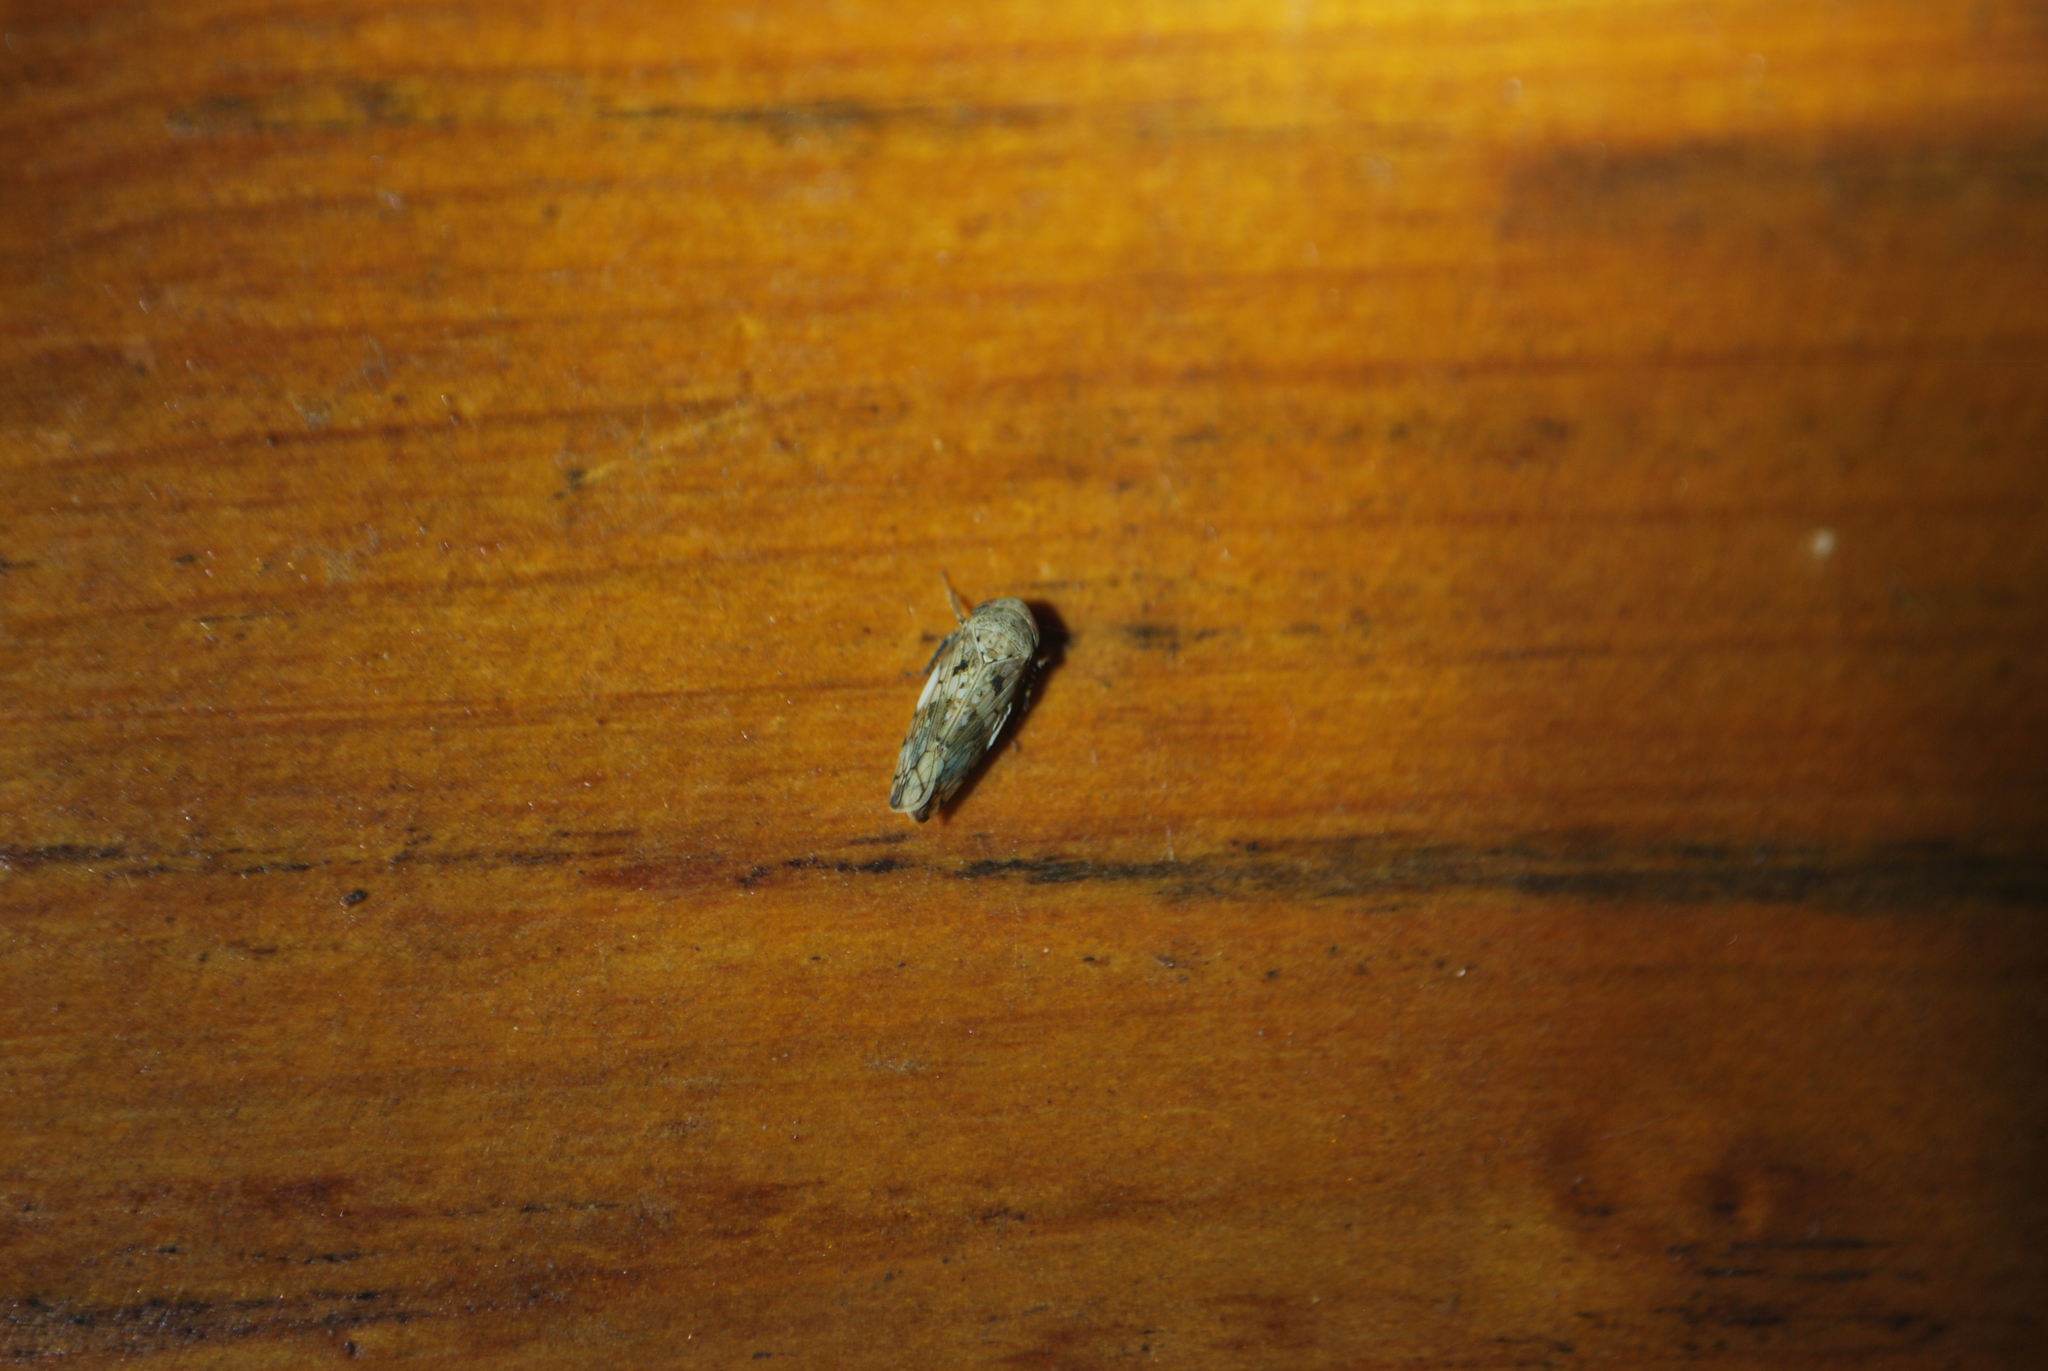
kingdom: Animalia
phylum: Arthropoda
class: Insecta
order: Hemiptera
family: Cicadellidae
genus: Menosoma
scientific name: Menosoma cinctum
